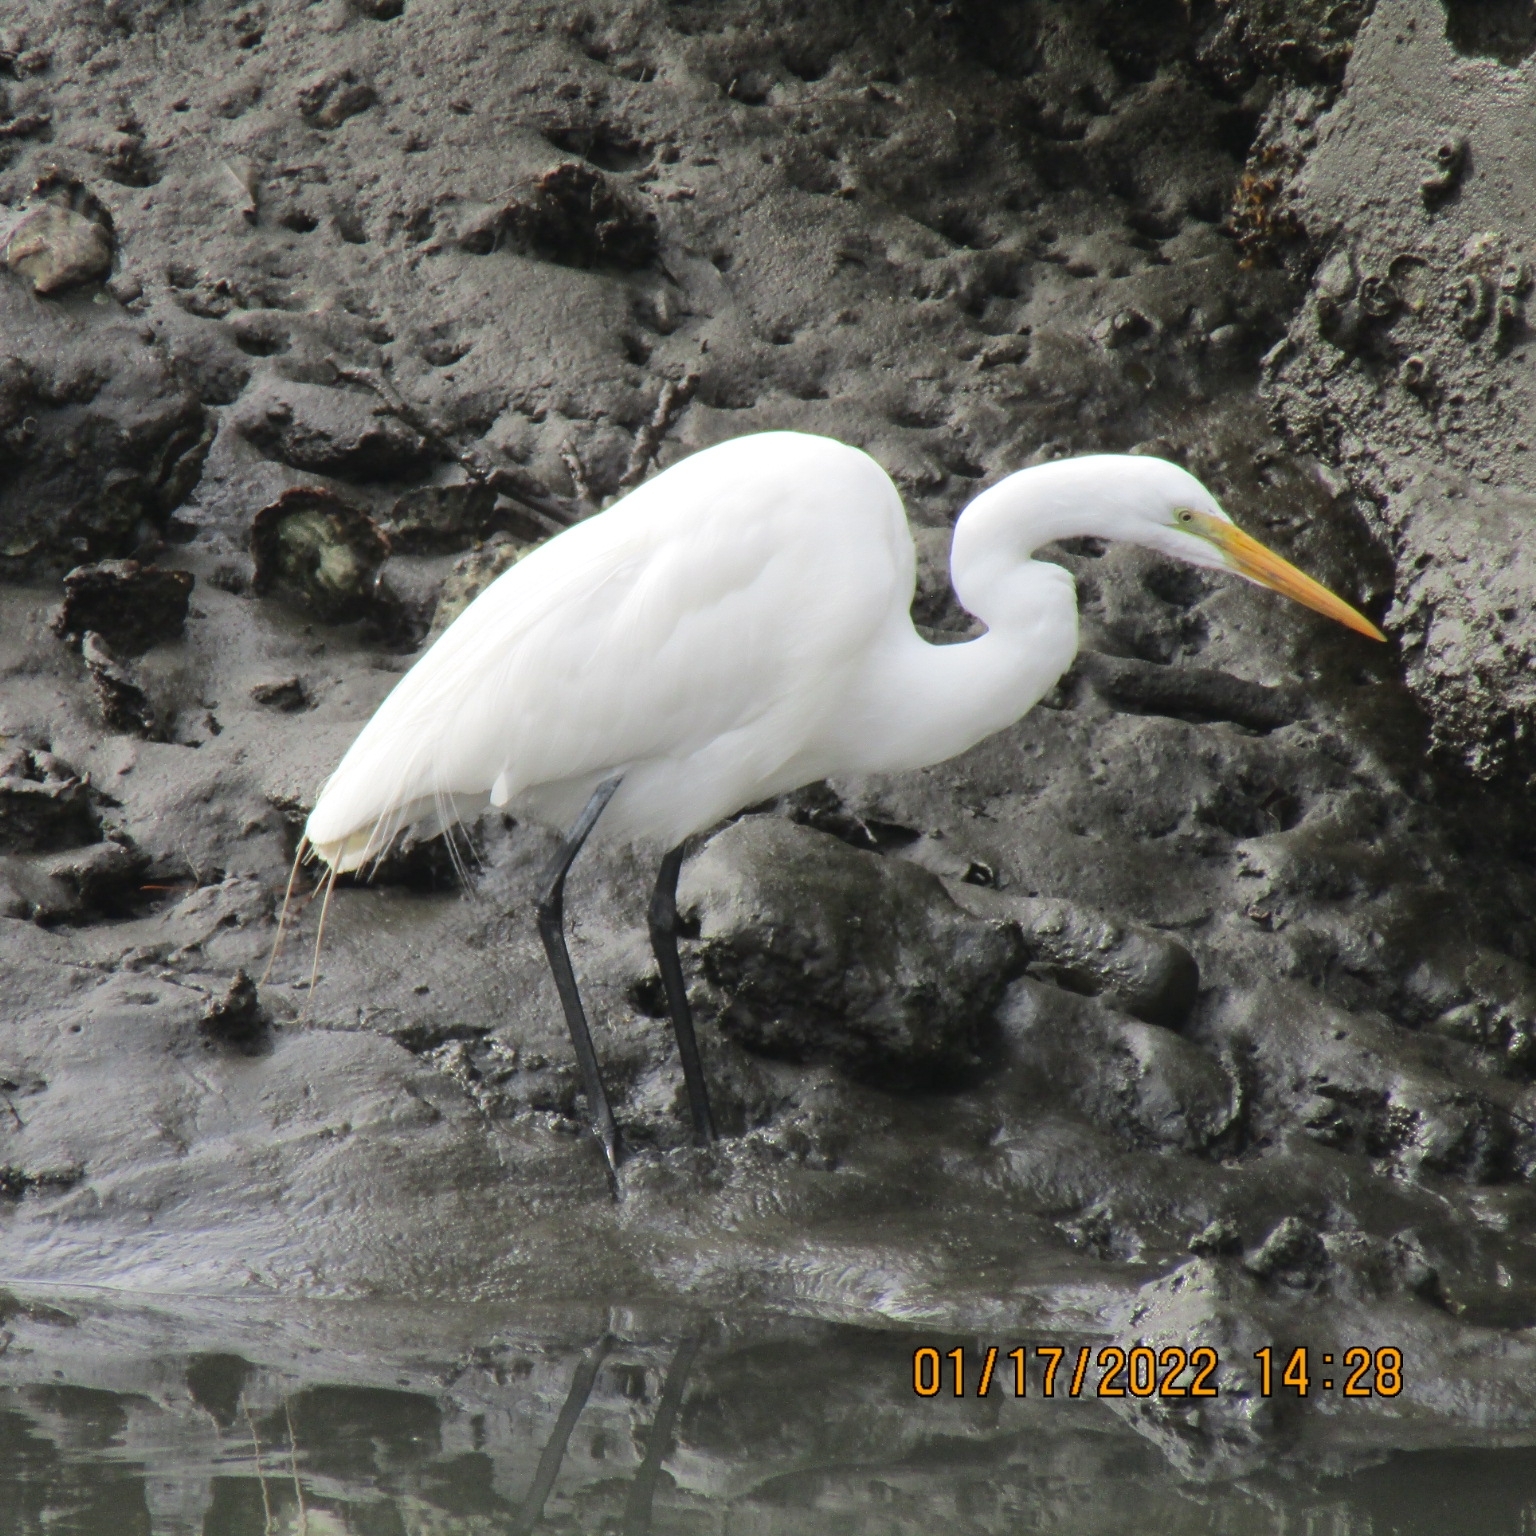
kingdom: Animalia
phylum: Chordata
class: Aves
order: Pelecaniformes
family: Ardeidae
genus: Ardea
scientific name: Ardea alba
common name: Great egret
